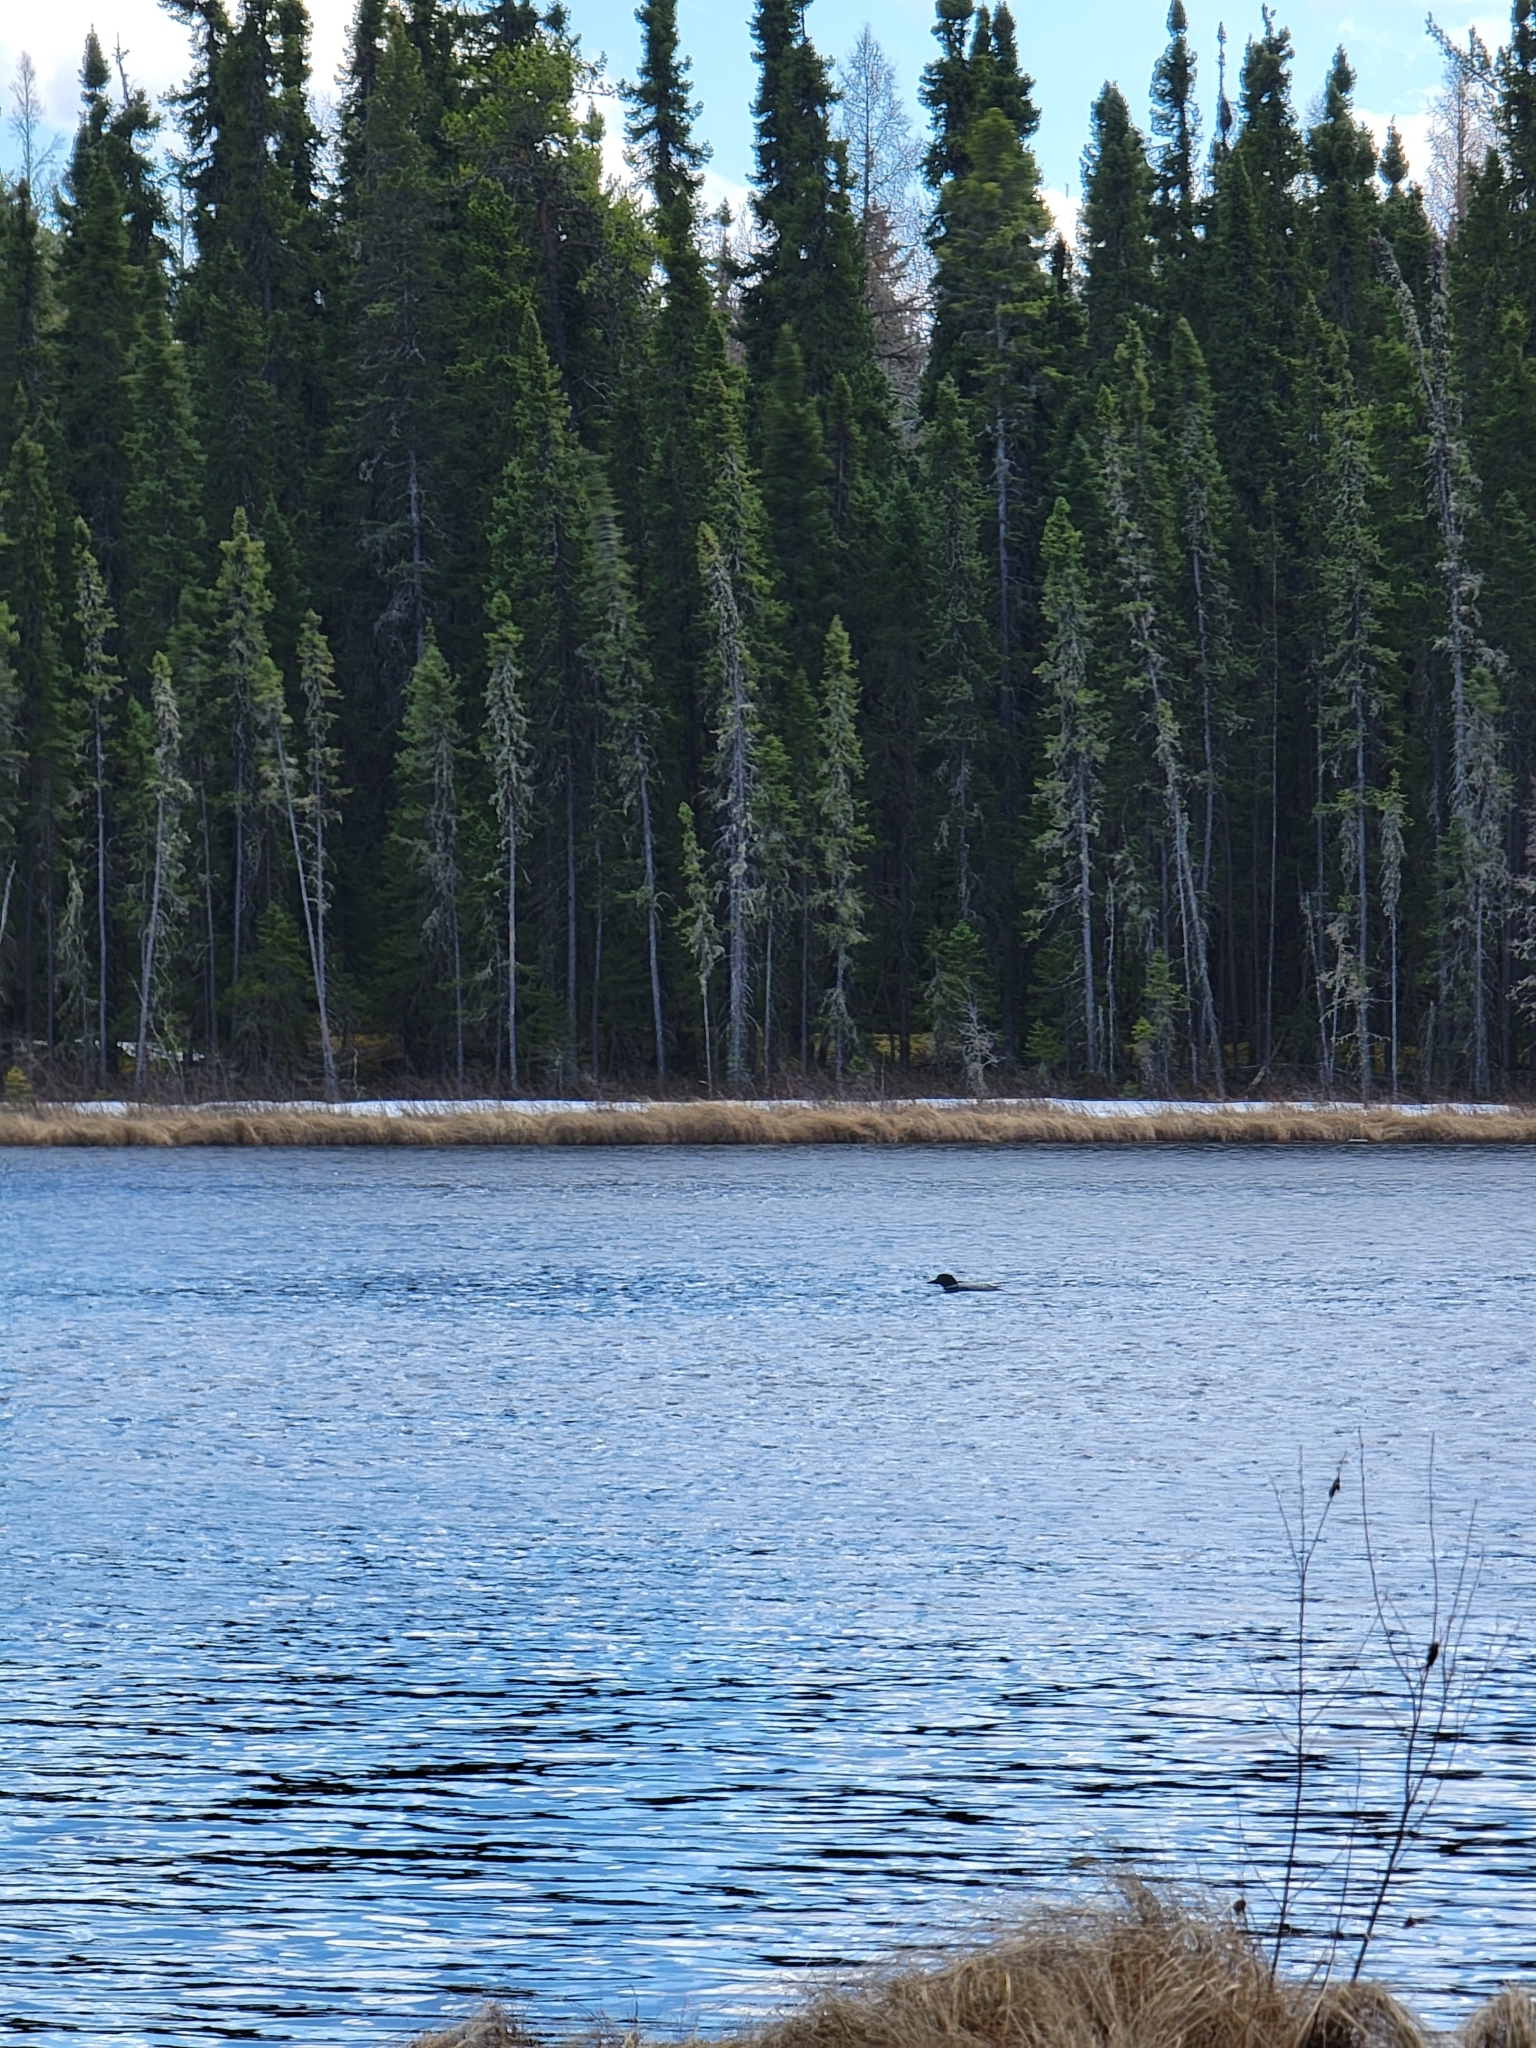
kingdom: Animalia
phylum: Chordata
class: Aves
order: Gaviiformes
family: Gaviidae
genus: Gavia
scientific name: Gavia immer
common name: Common loon
